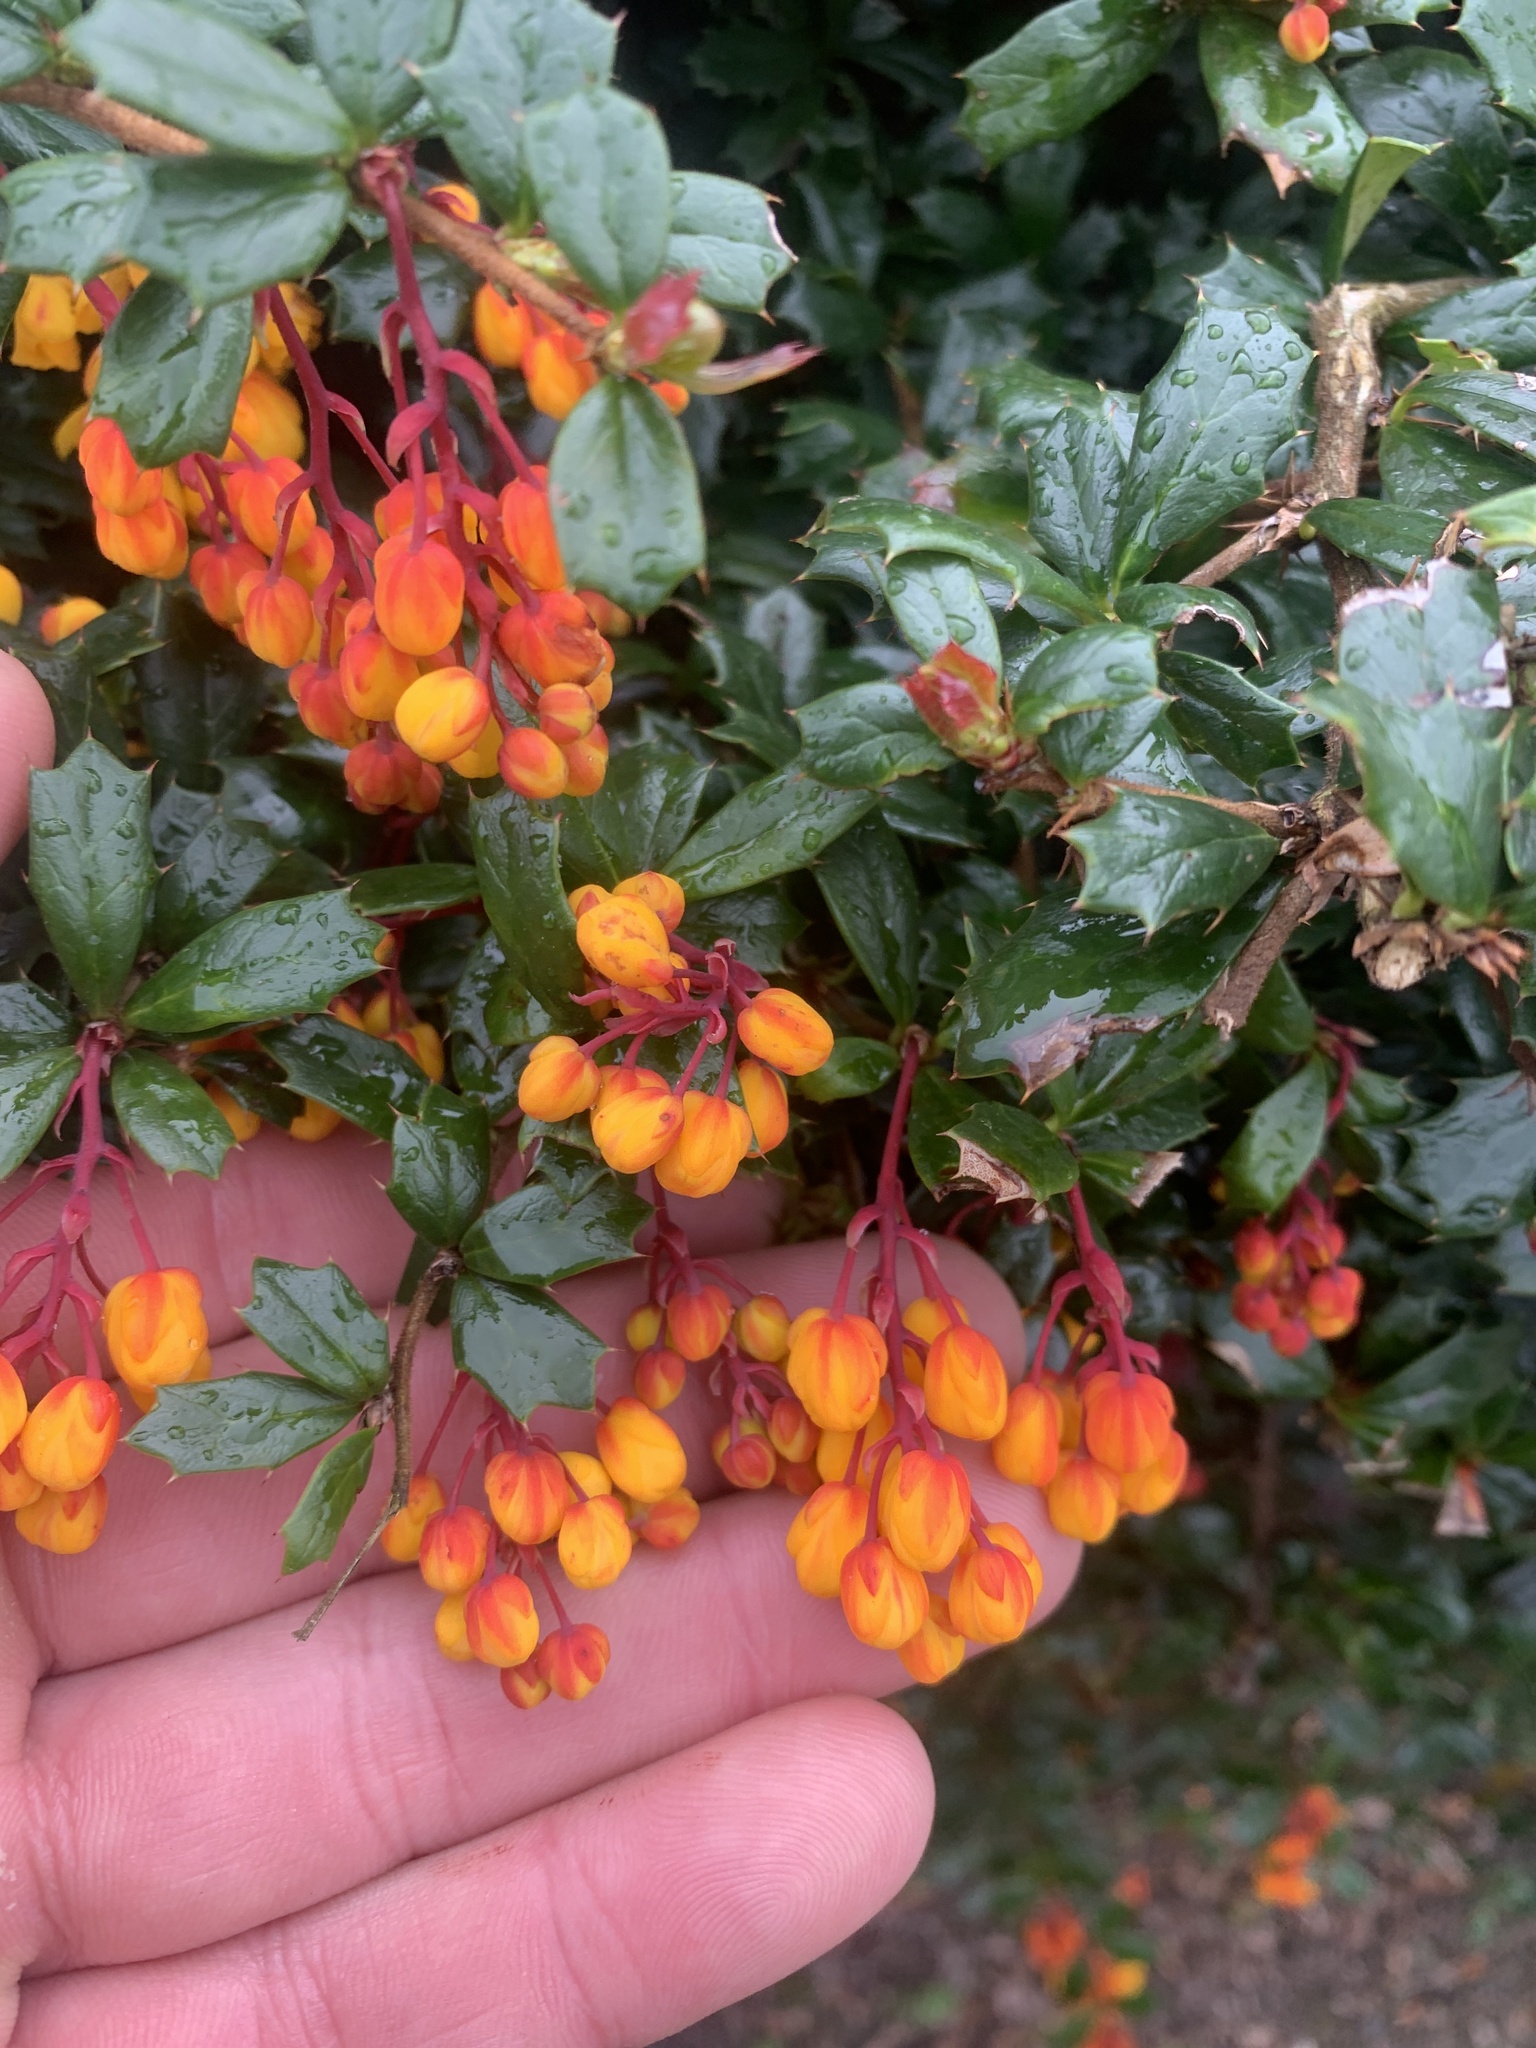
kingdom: Plantae
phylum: Tracheophyta
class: Magnoliopsida
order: Ranunculales
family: Berberidaceae
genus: Berberis
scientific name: Berberis darwinii
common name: Darwin's barberry
